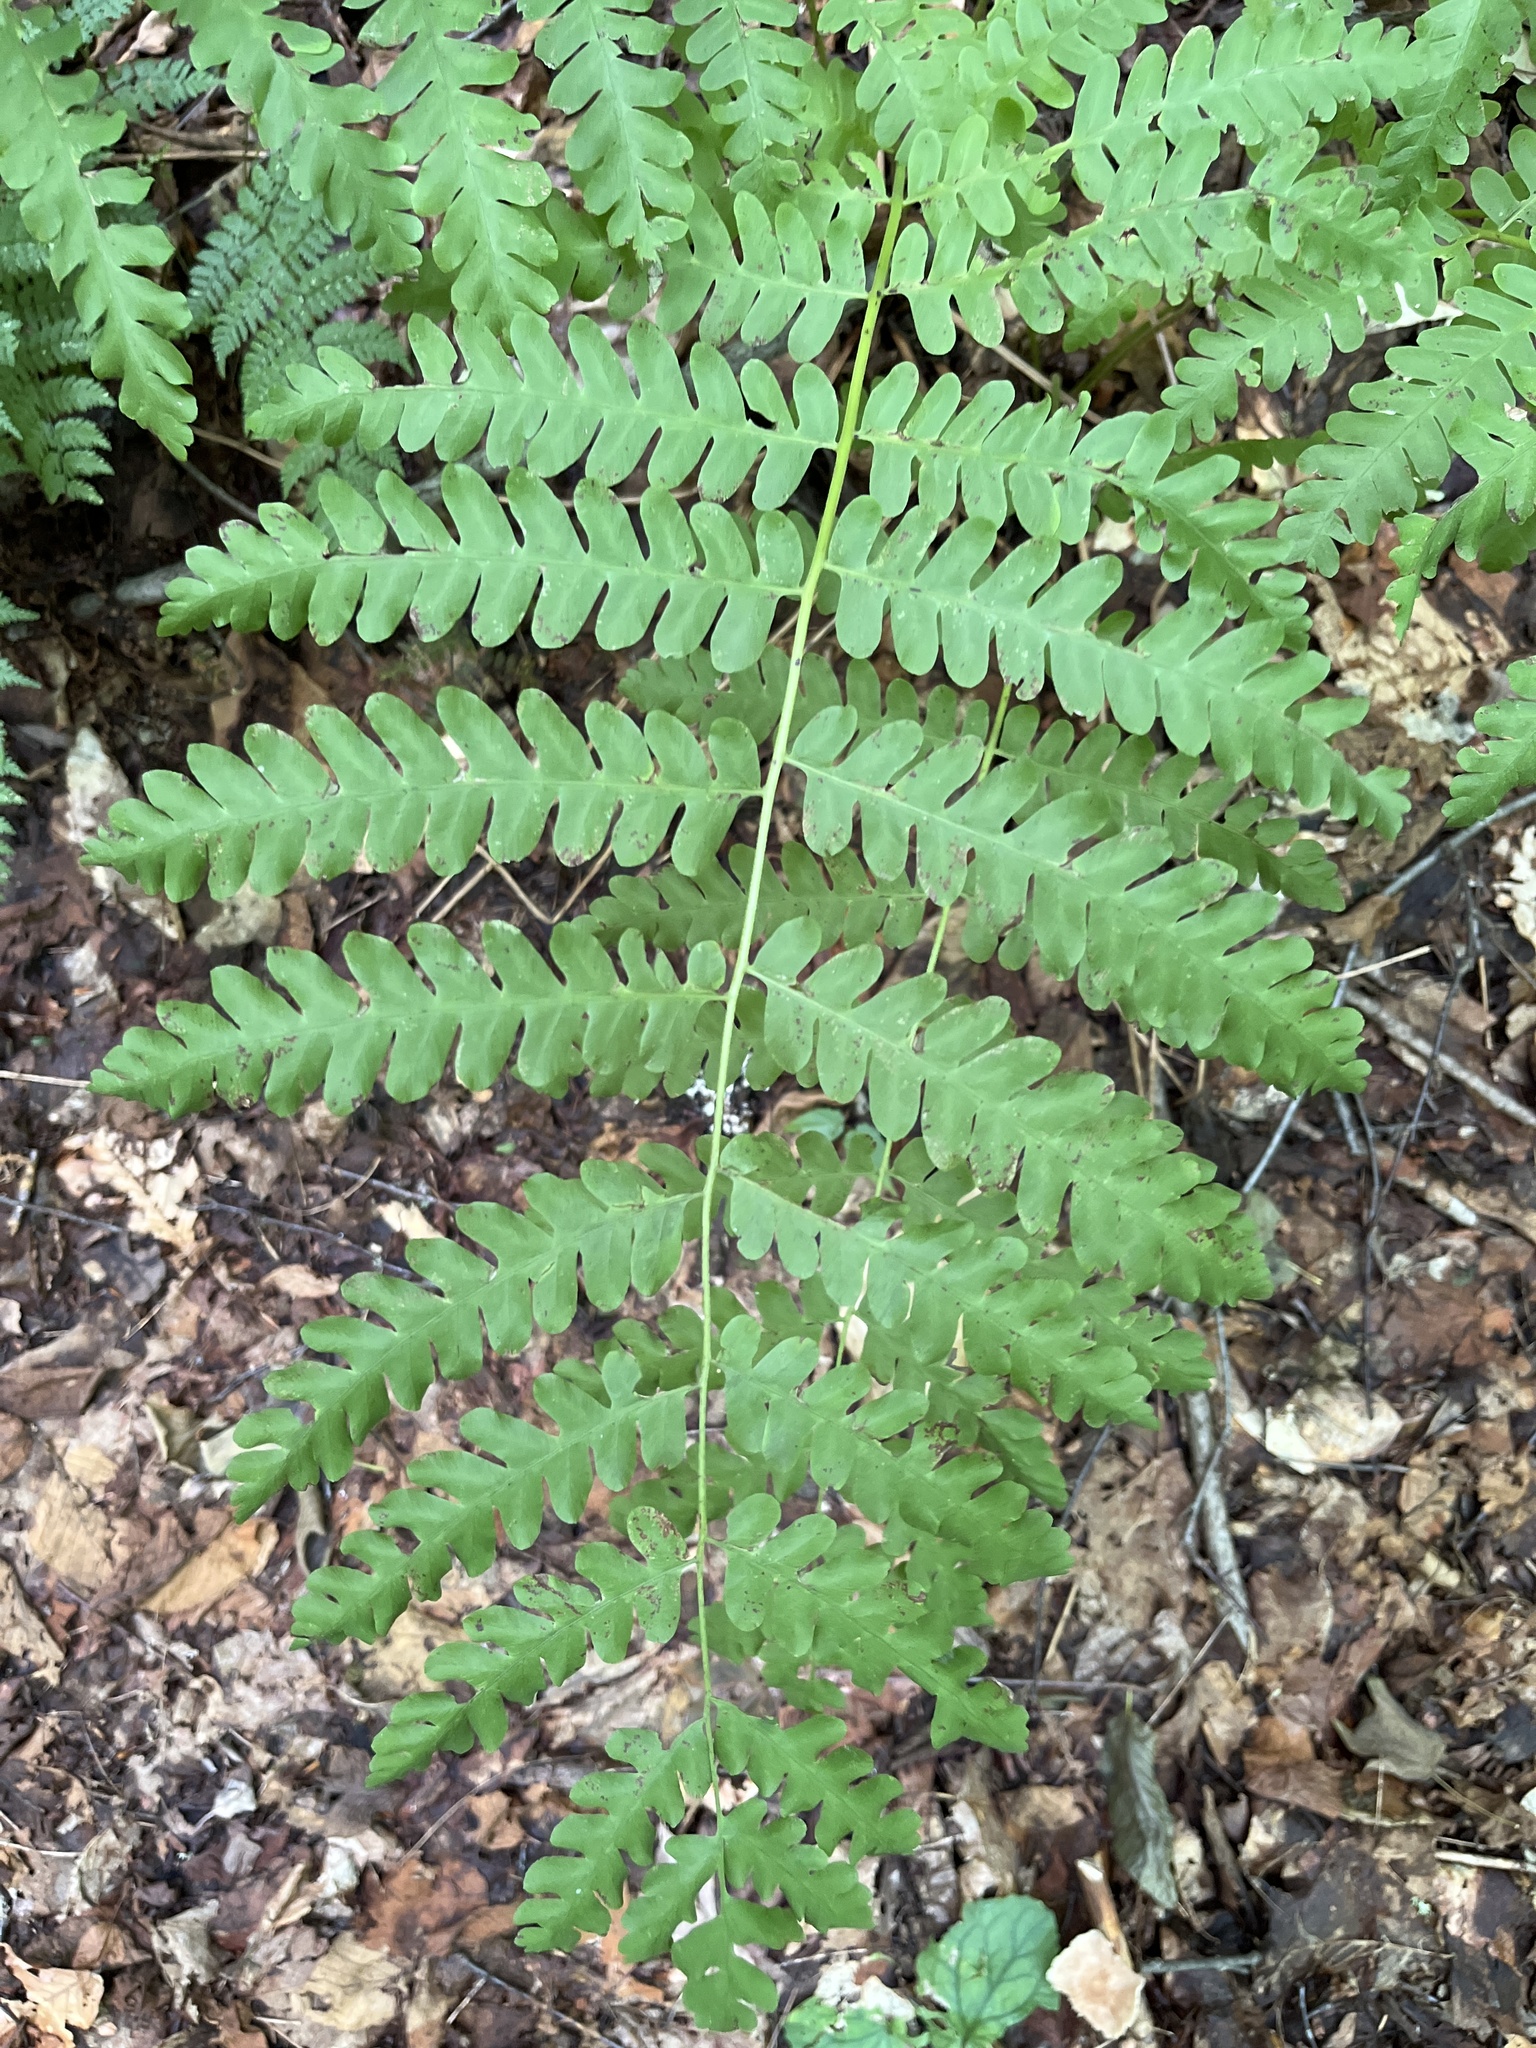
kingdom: Plantae
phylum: Tracheophyta
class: Polypodiopsida
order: Osmundales
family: Osmundaceae
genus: Claytosmunda
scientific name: Claytosmunda claytoniana
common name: Clayton's fern
